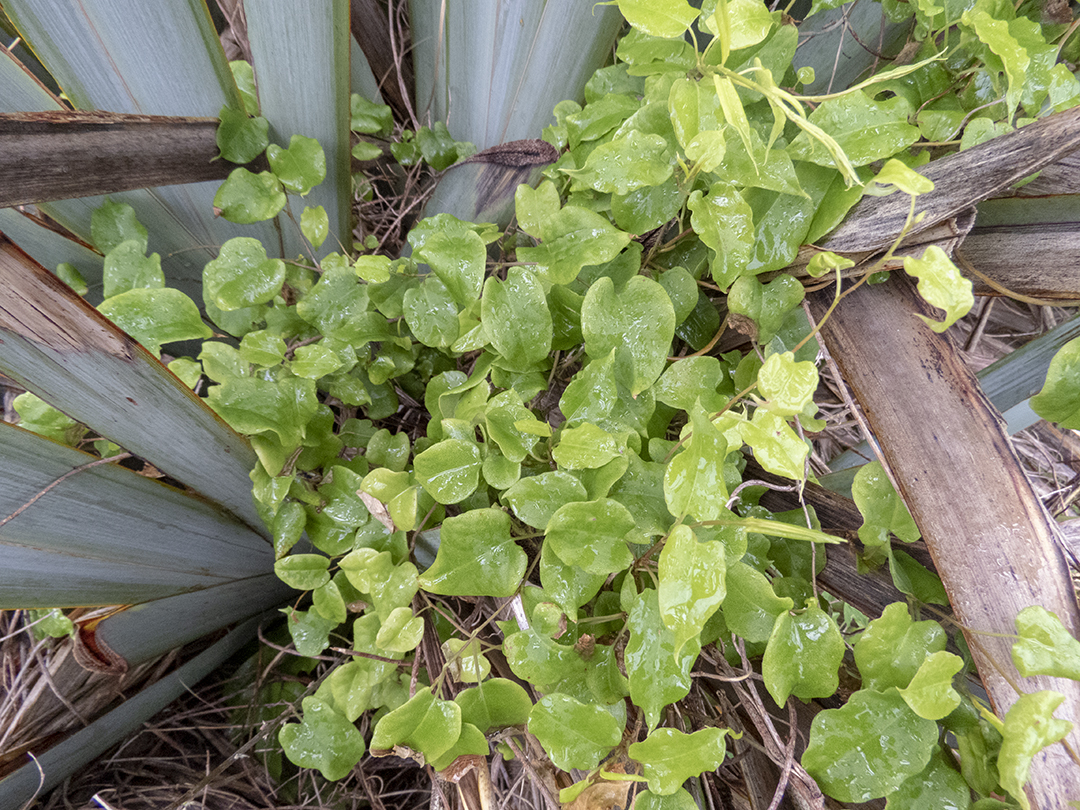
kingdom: Plantae
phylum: Tracheophyta
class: Magnoliopsida
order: Myrtales
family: Onagraceae
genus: Fuchsia
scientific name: Fuchsia perscandens
